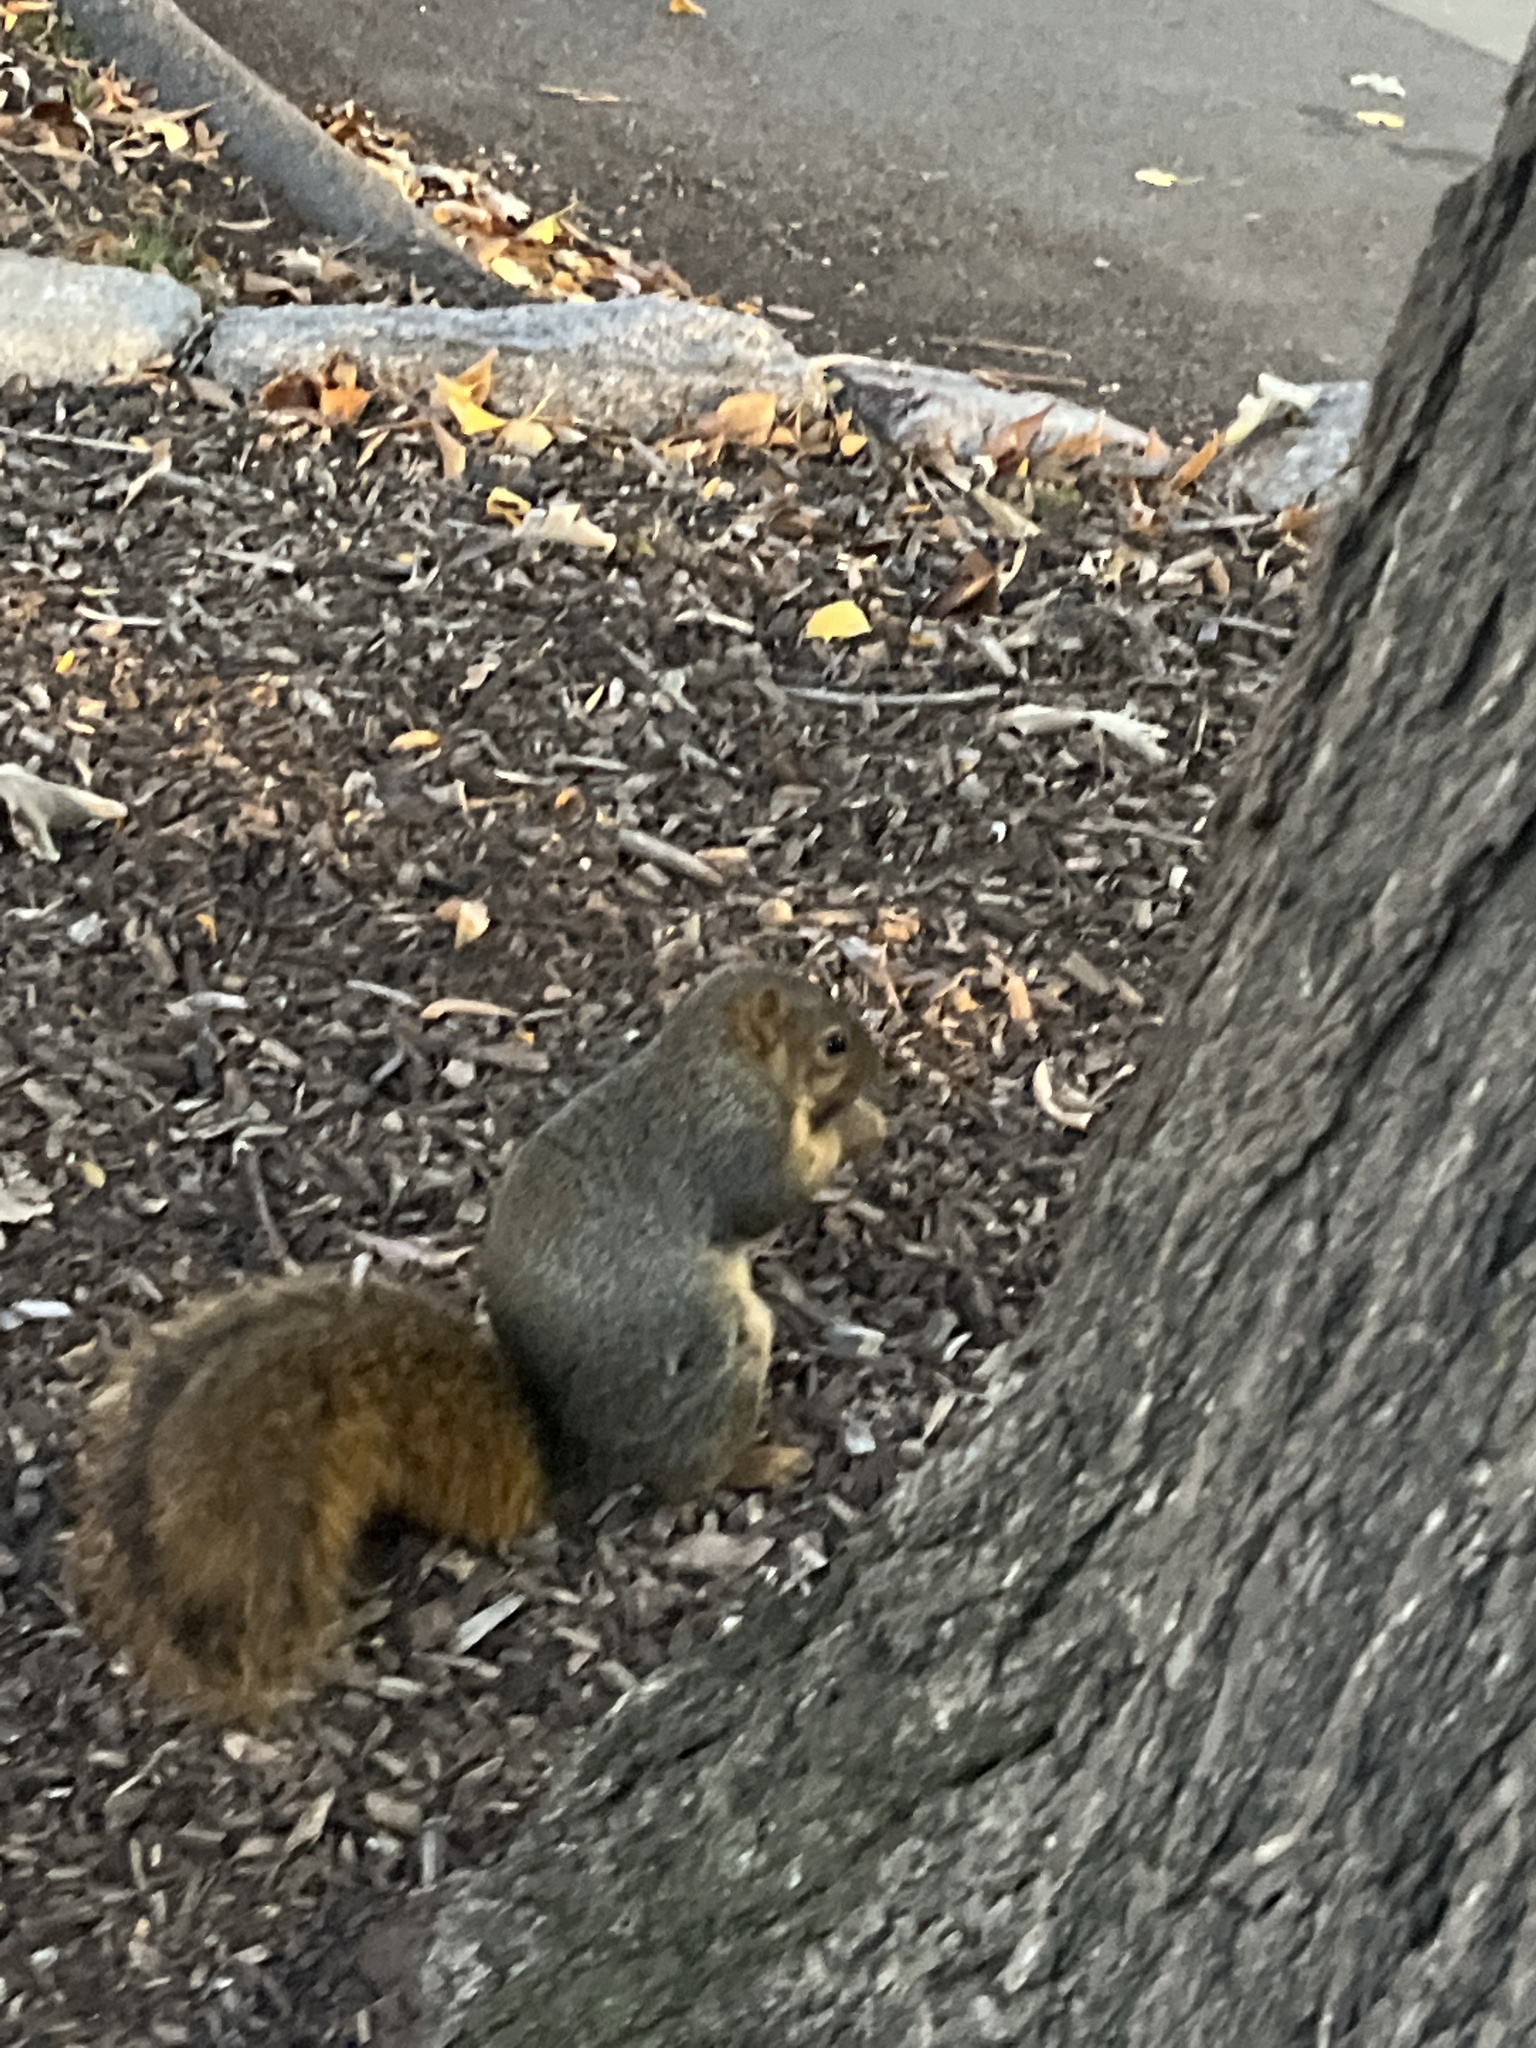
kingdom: Animalia
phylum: Chordata
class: Mammalia
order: Rodentia
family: Sciuridae
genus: Sciurus
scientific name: Sciurus niger
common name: Fox squirrel
